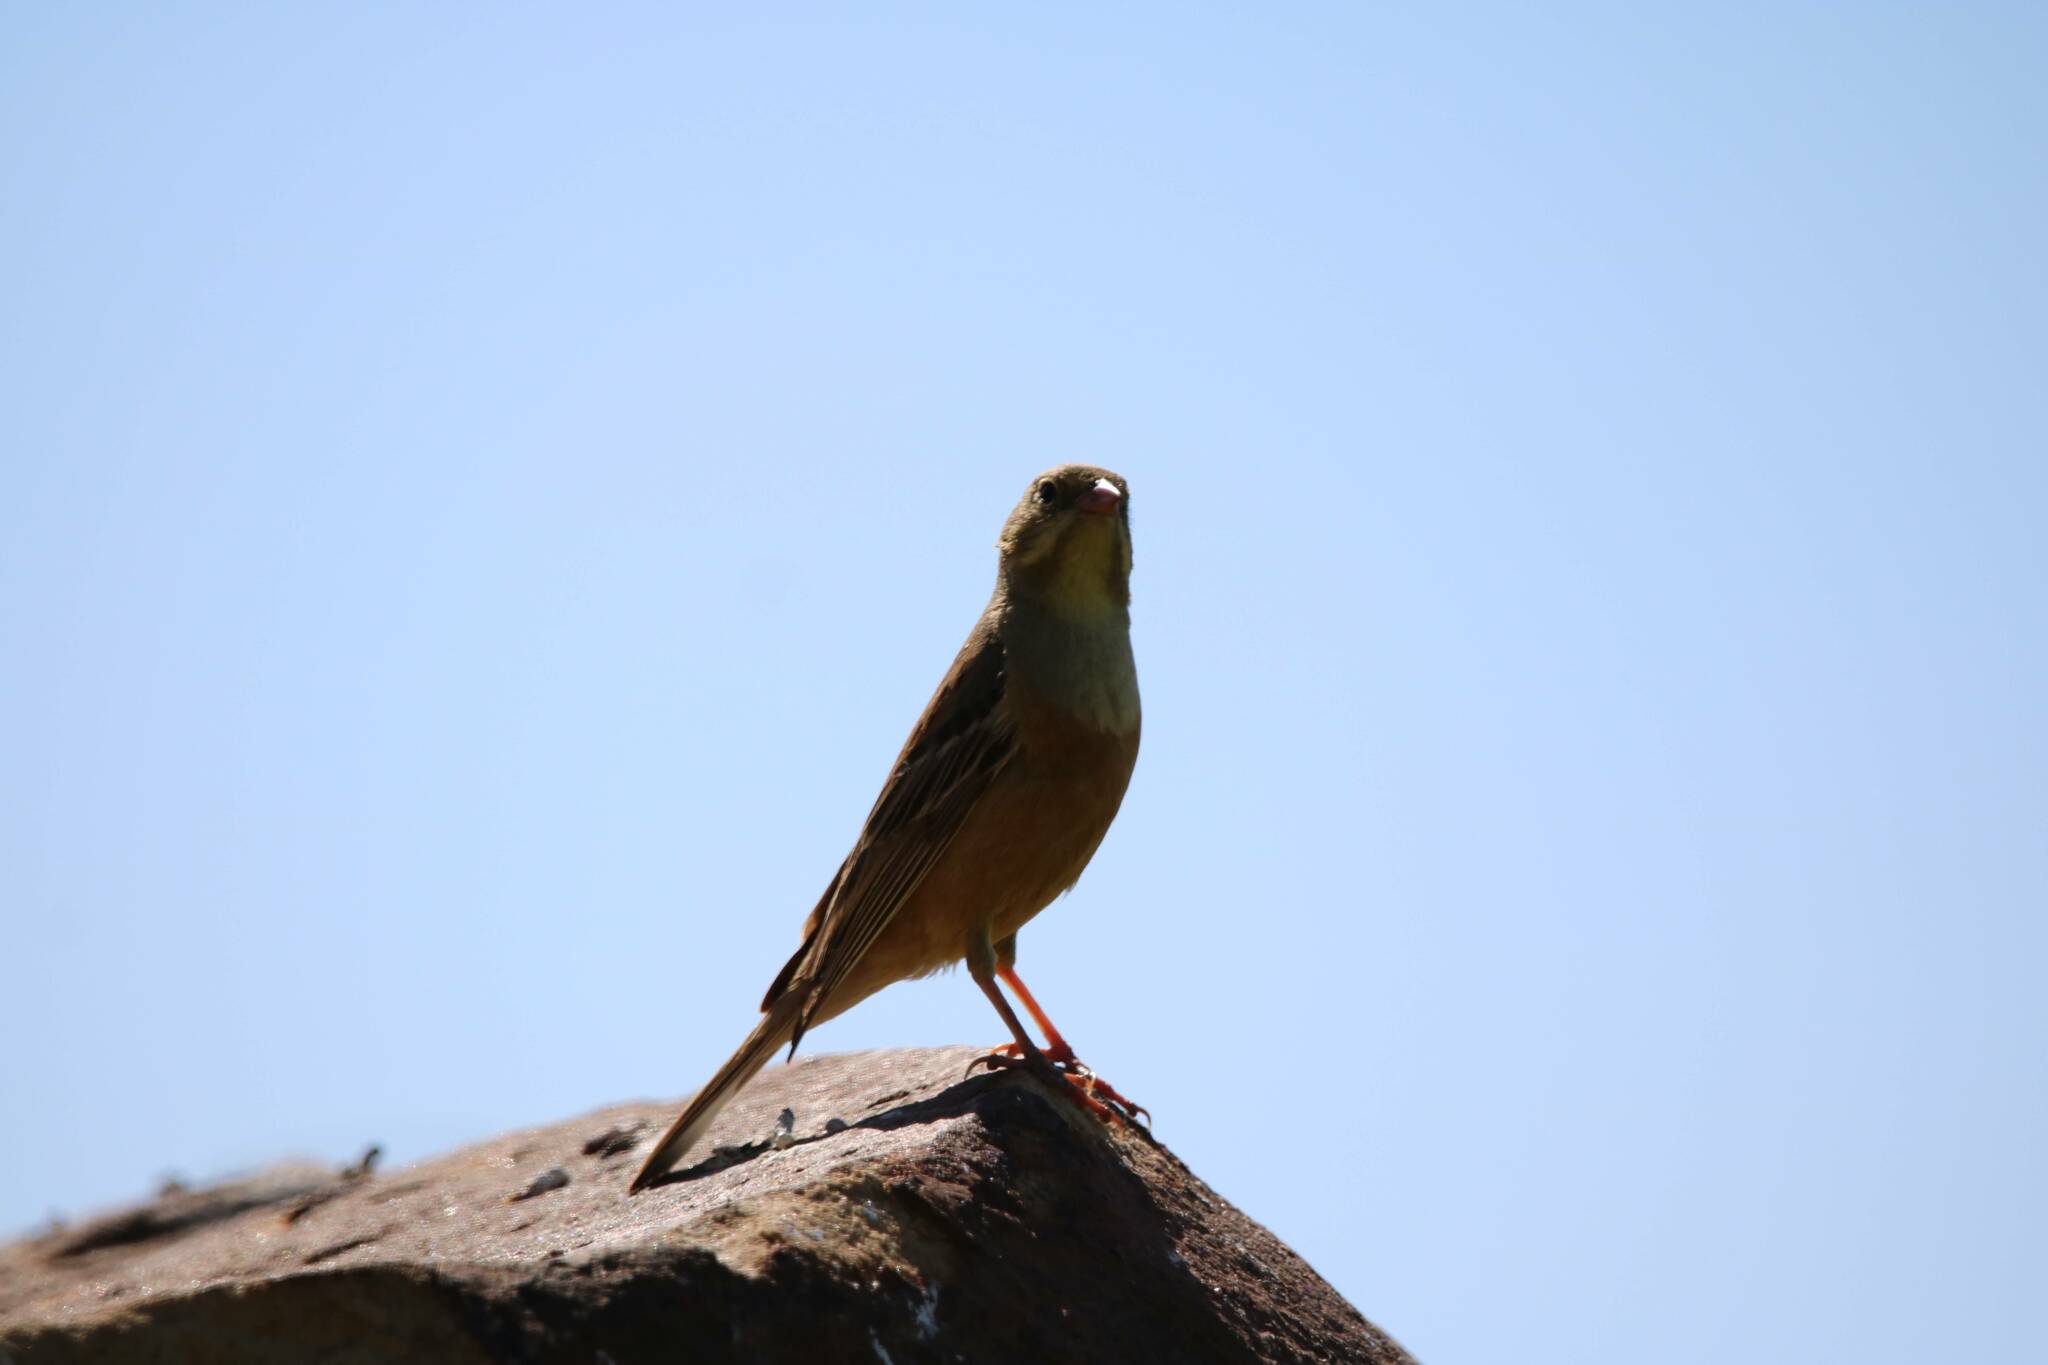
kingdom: Animalia
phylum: Chordata
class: Aves
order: Passeriformes
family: Emberizidae
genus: Emberiza
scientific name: Emberiza hortulana
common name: Ortolan bunting
